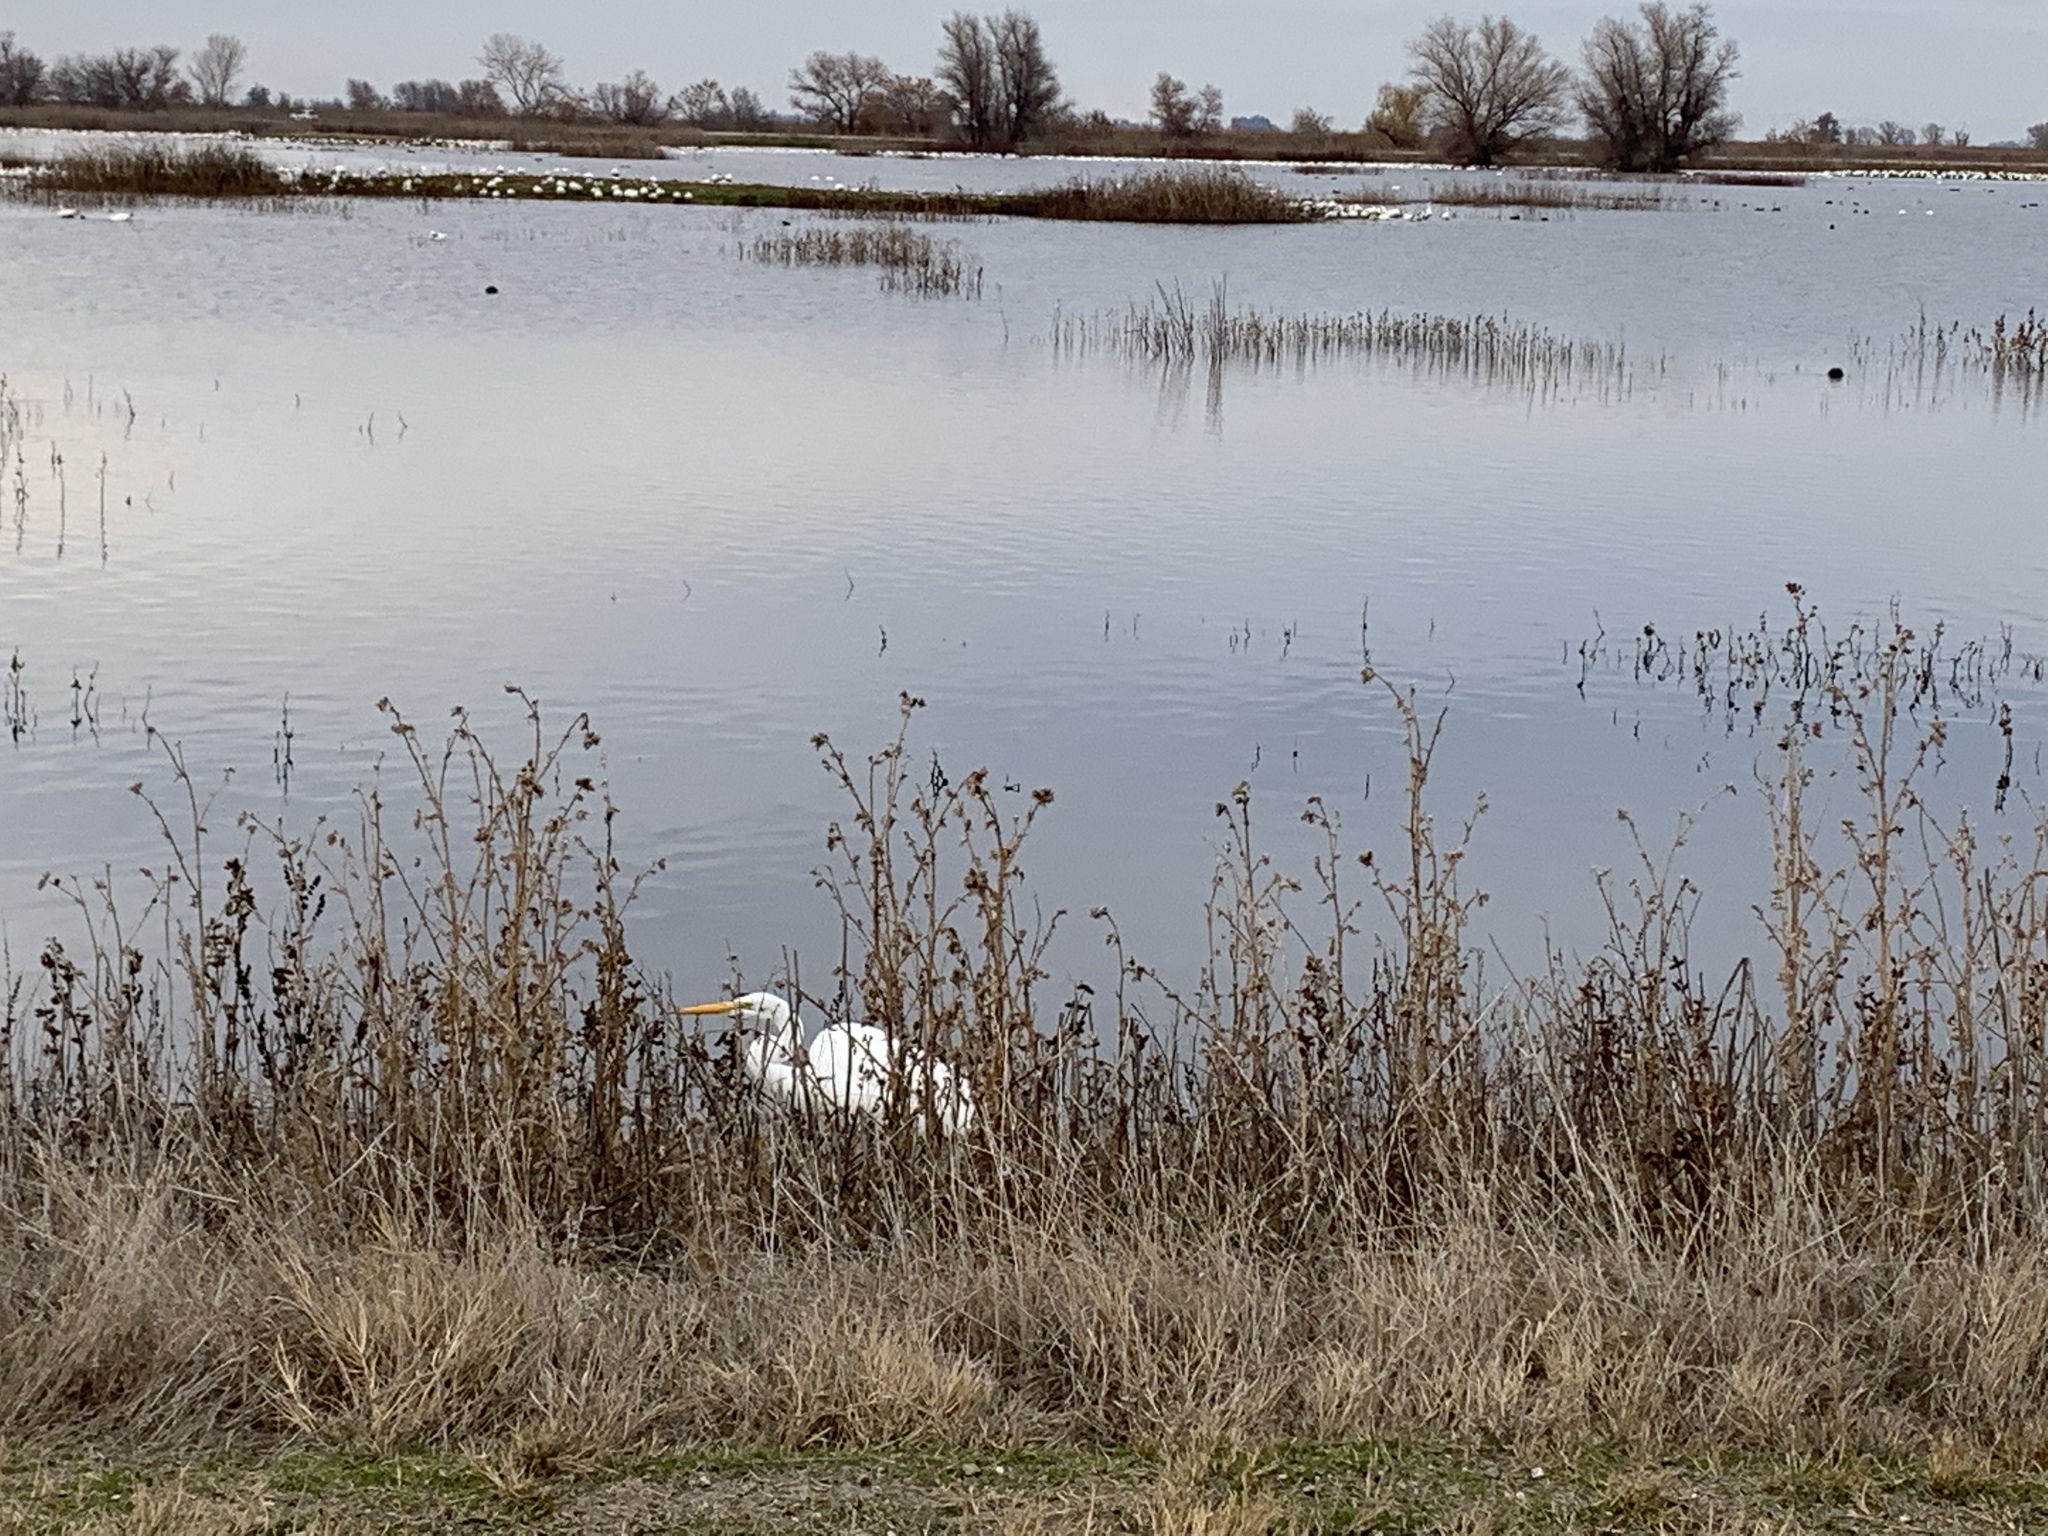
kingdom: Animalia
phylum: Chordata
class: Aves
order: Pelecaniformes
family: Ardeidae
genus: Ardea
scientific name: Ardea alba
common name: Great egret
